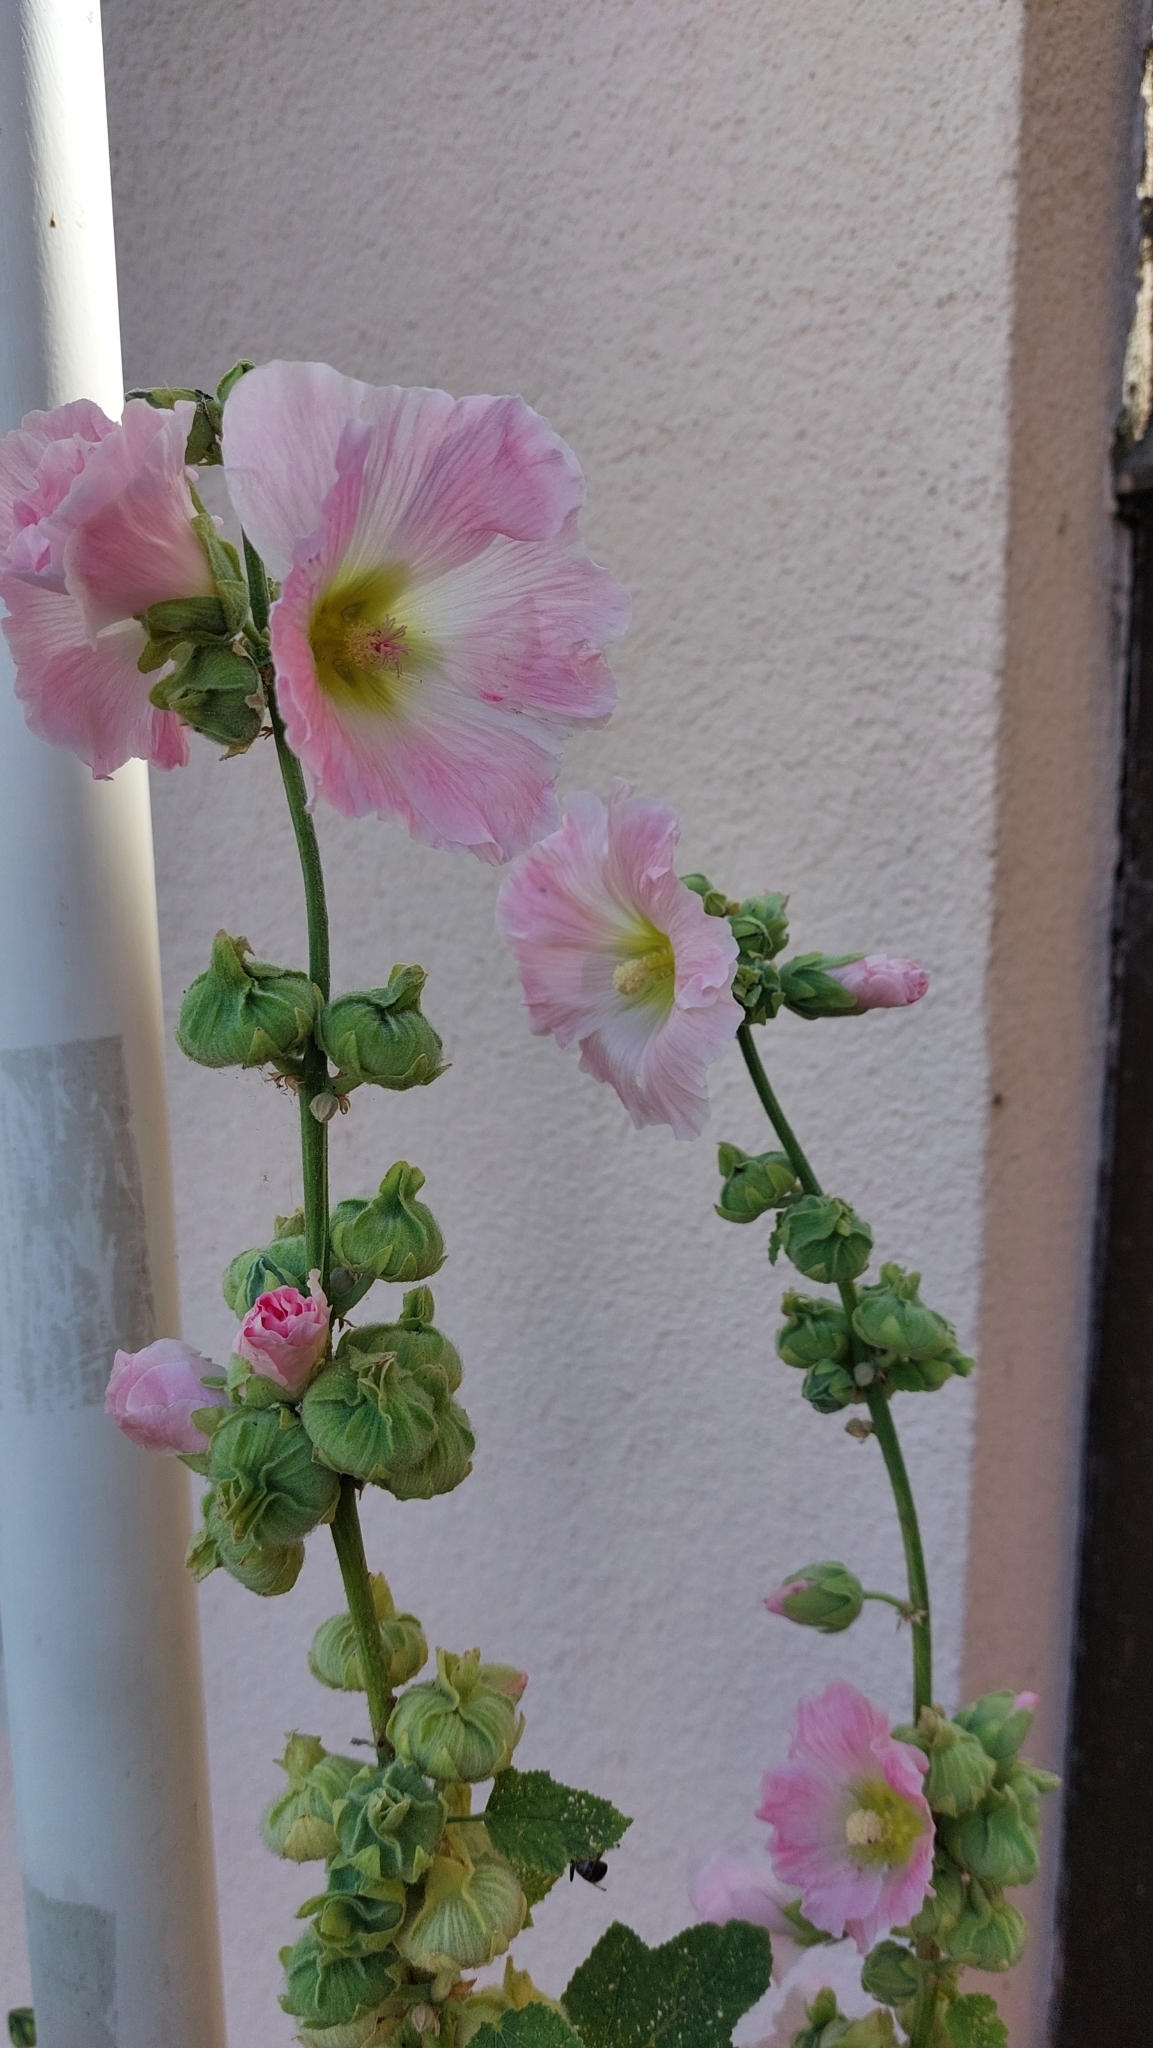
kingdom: Plantae
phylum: Tracheophyta
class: Magnoliopsida
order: Malvales
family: Malvaceae
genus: Alcea
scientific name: Alcea rosea
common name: Hollyhock
